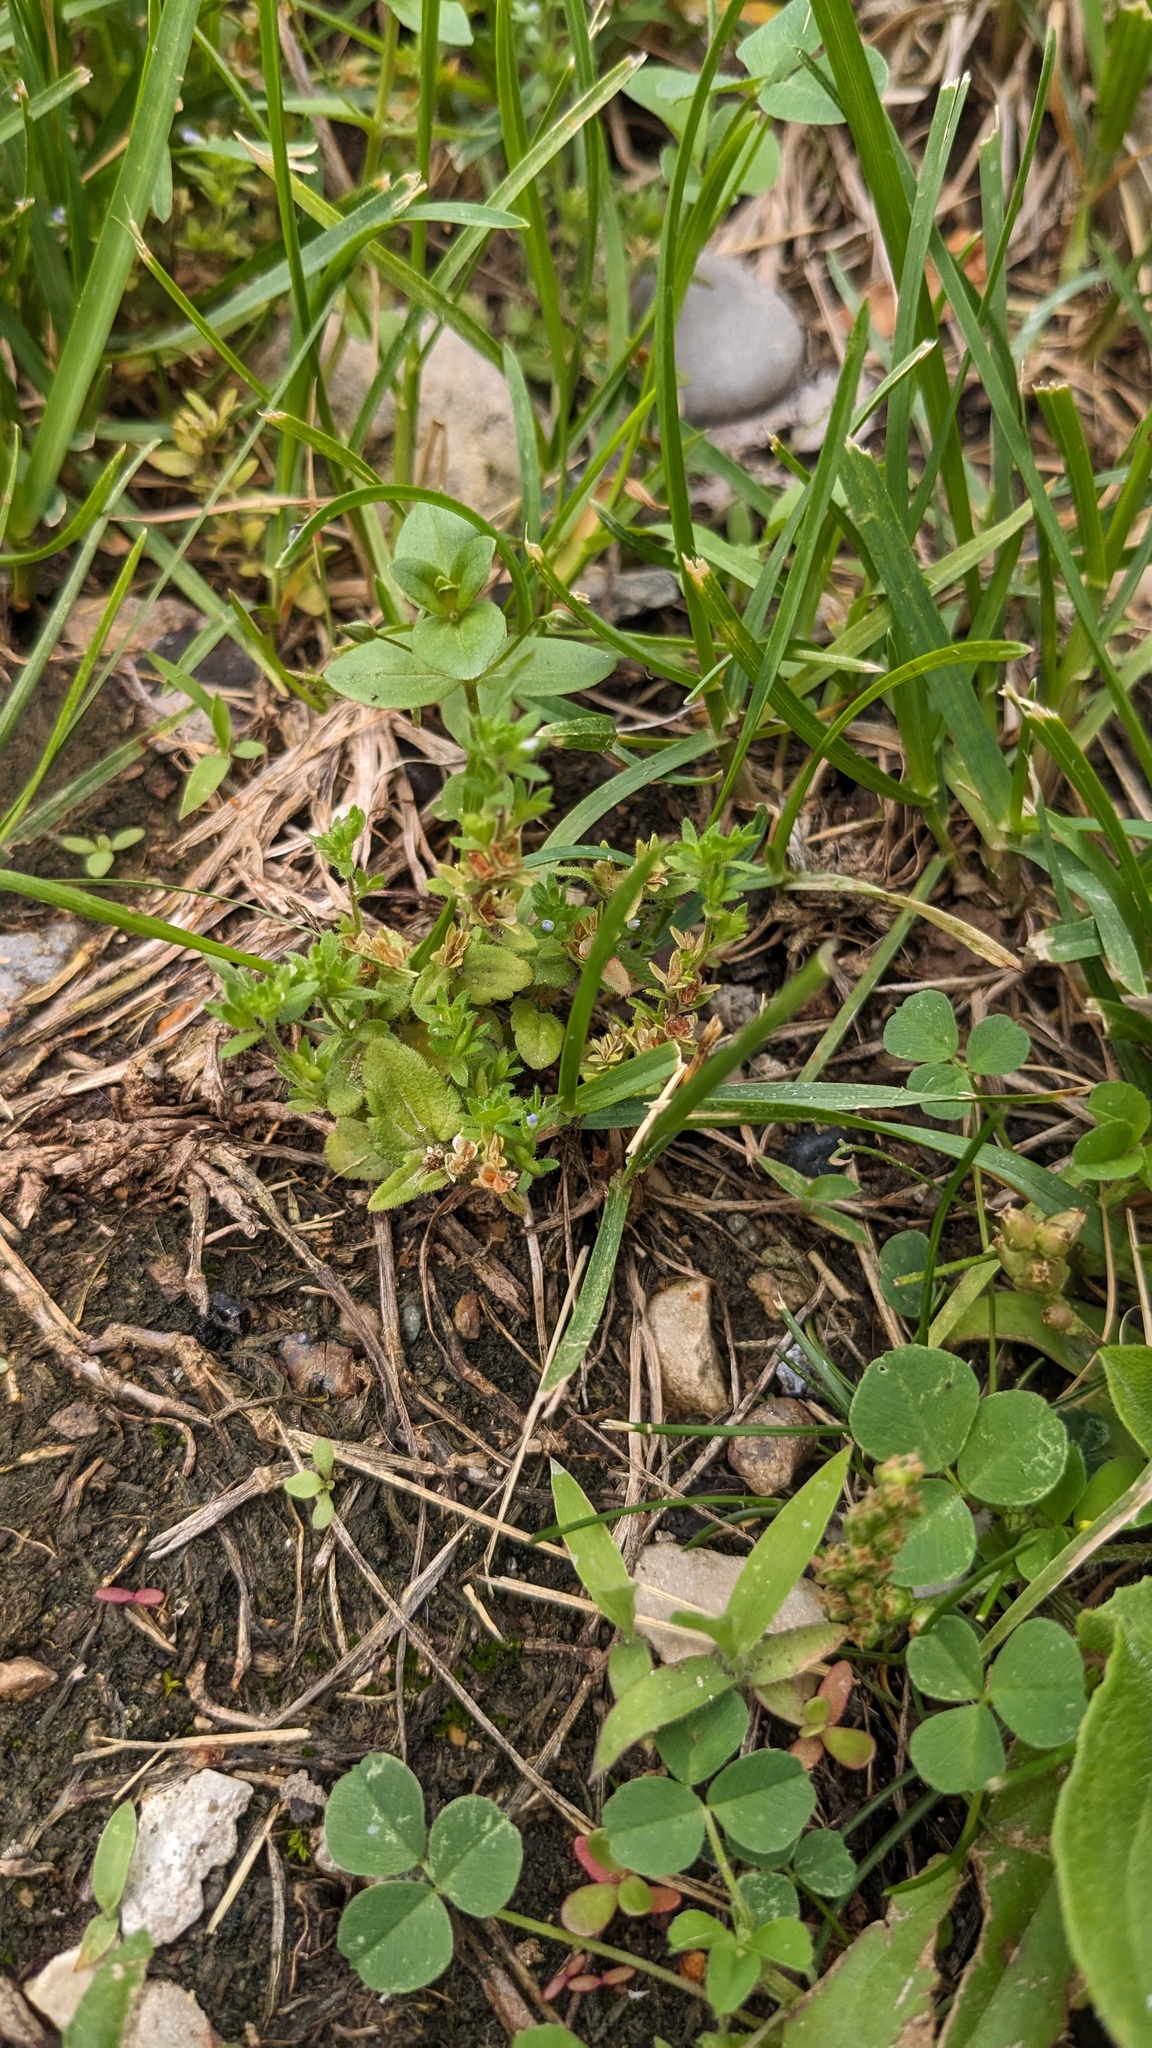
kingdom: Plantae
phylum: Tracheophyta
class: Magnoliopsida
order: Lamiales
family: Plantaginaceae
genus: Veronica
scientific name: Veronica arvensis
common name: Corn speedwell
